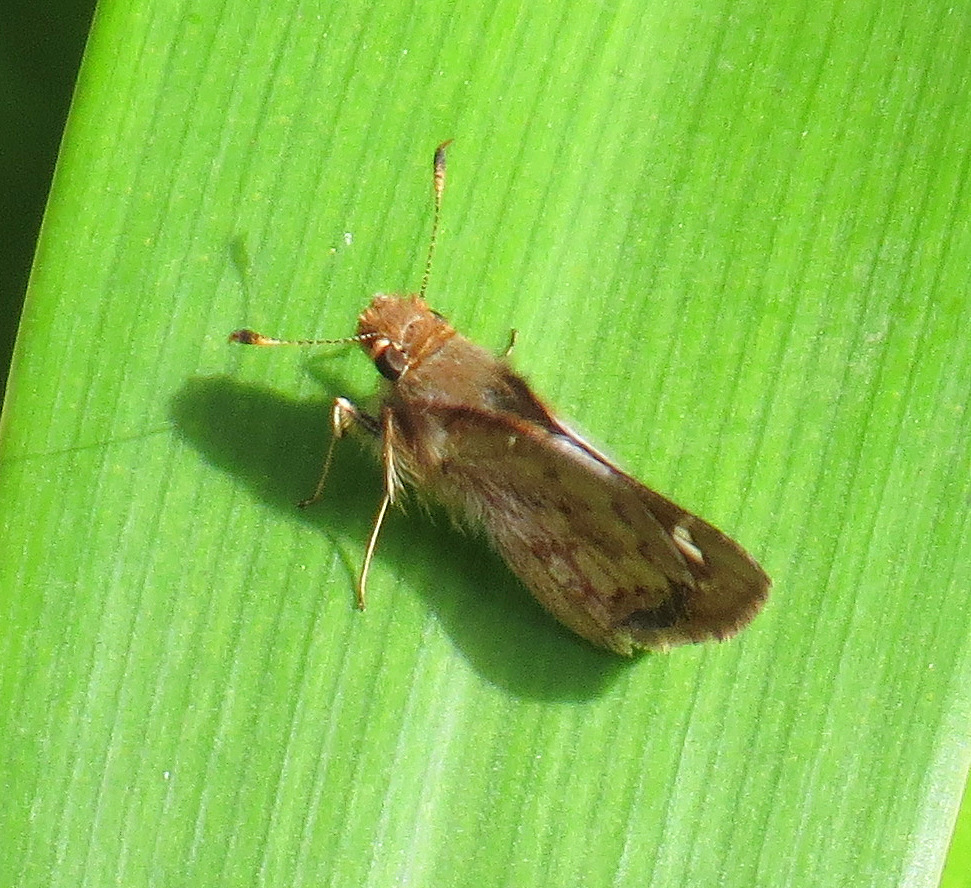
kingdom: Animalia
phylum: Arthropoda
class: Insecta
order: Lepidoptera
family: Hesperiidae
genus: Neposa
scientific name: Neposa
